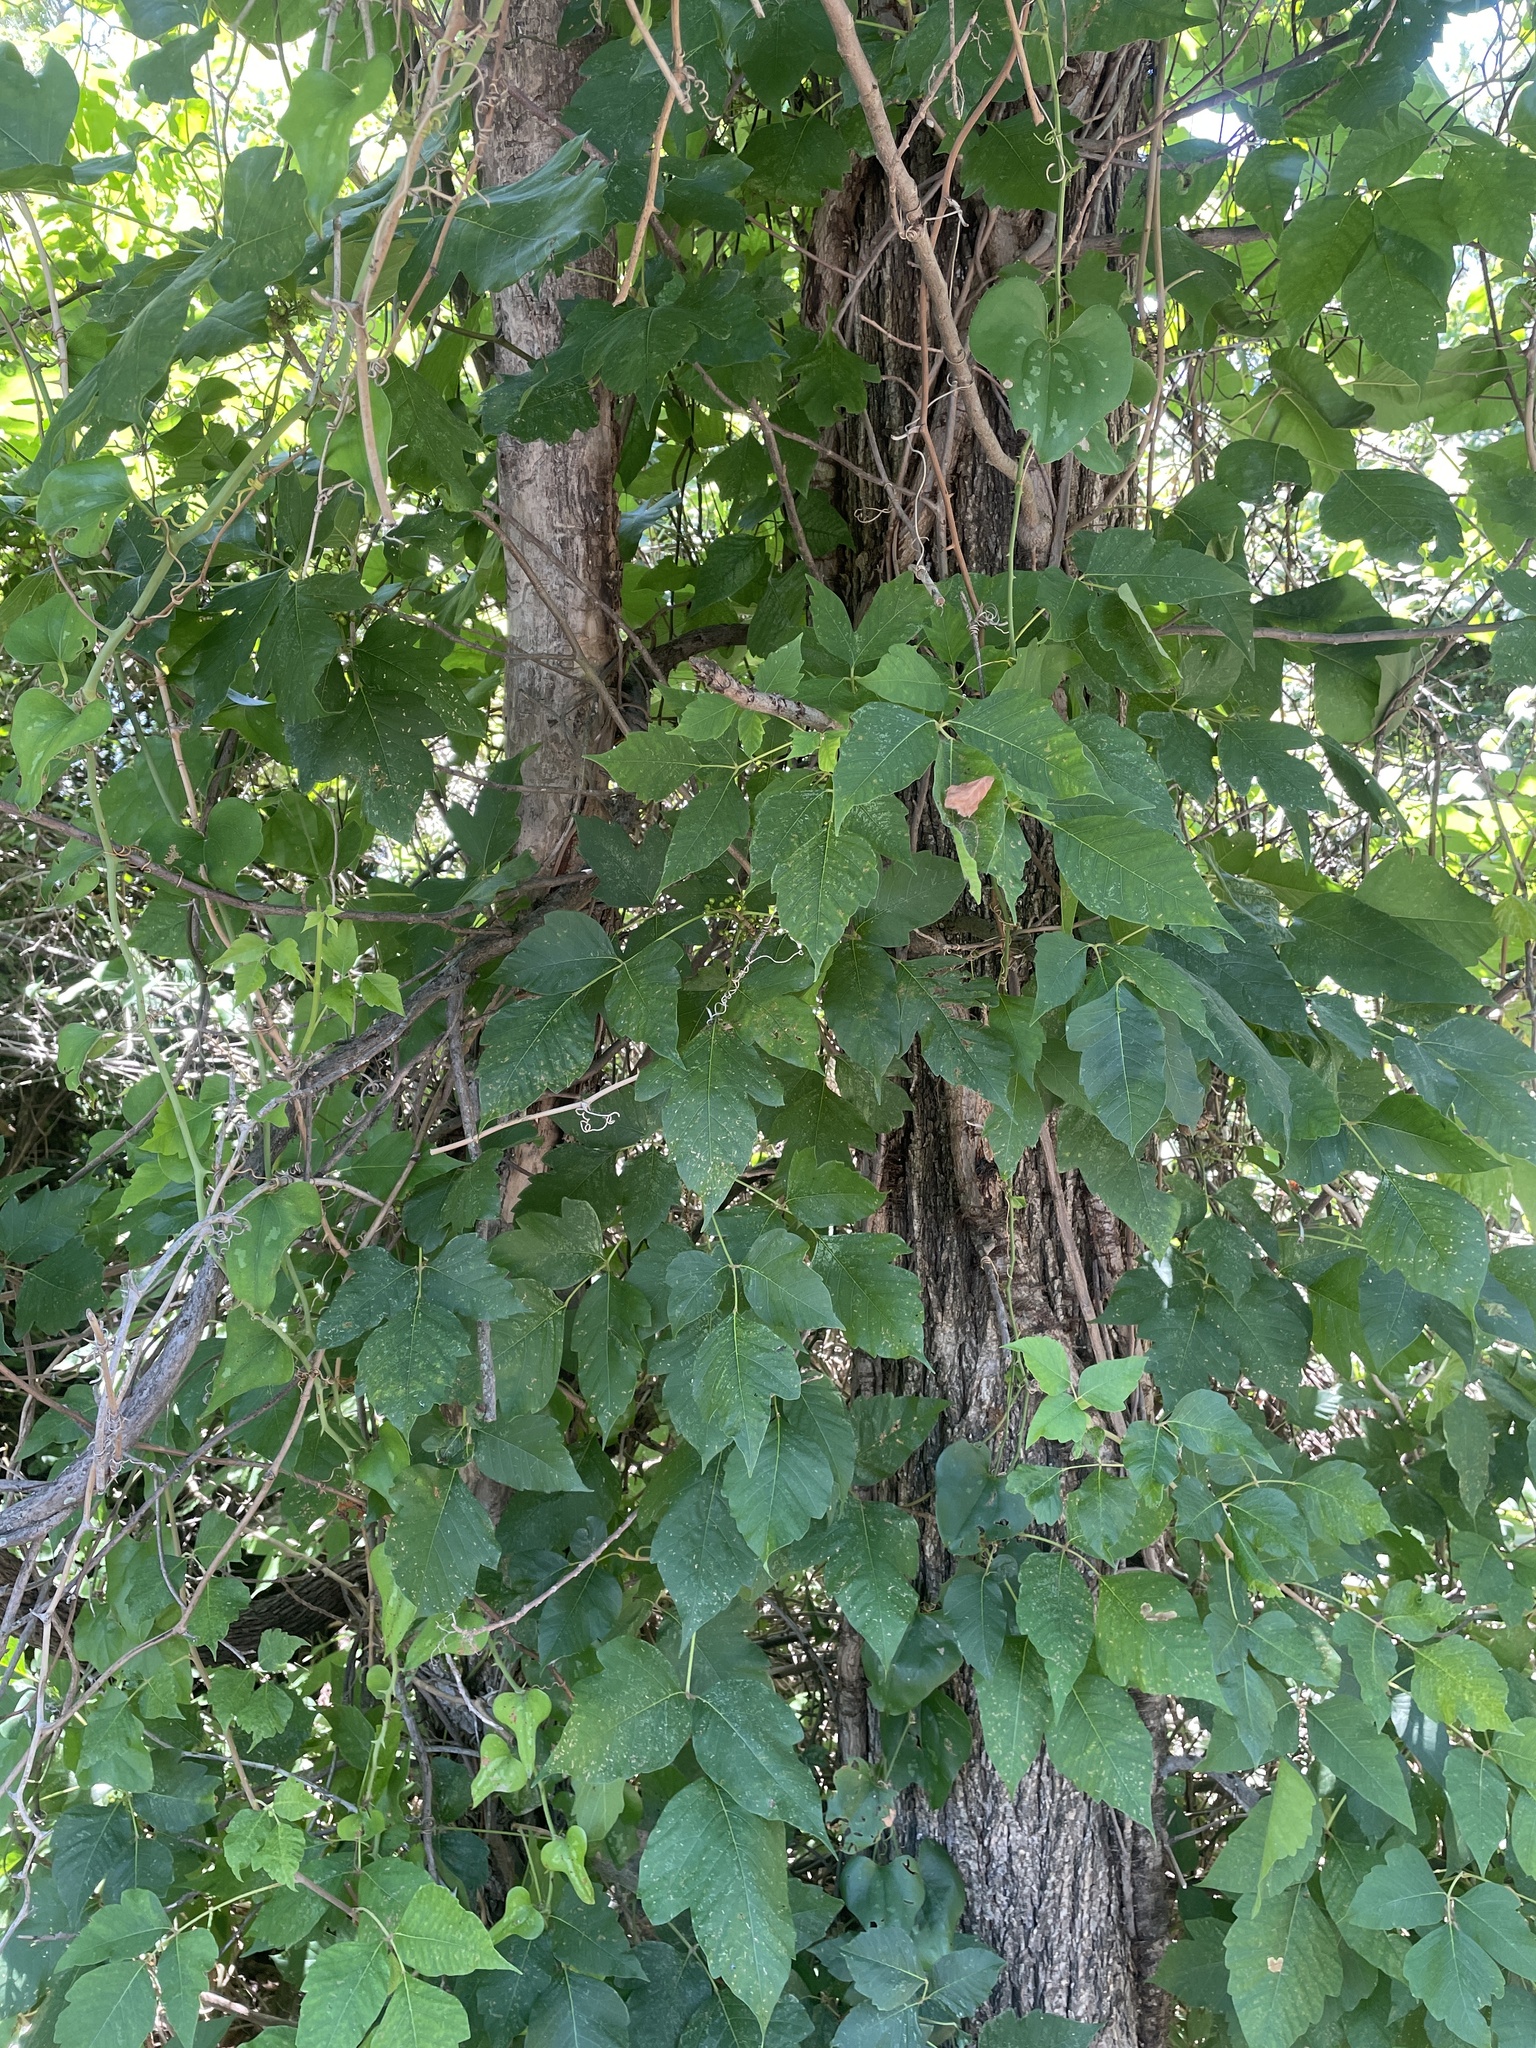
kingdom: Plantae
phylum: Tracheophyta
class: Magnoliopsida
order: Sapindales
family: Anacardiaceae
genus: Toxicodendron
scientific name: Toxicodendron radicans
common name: Poison ivy
